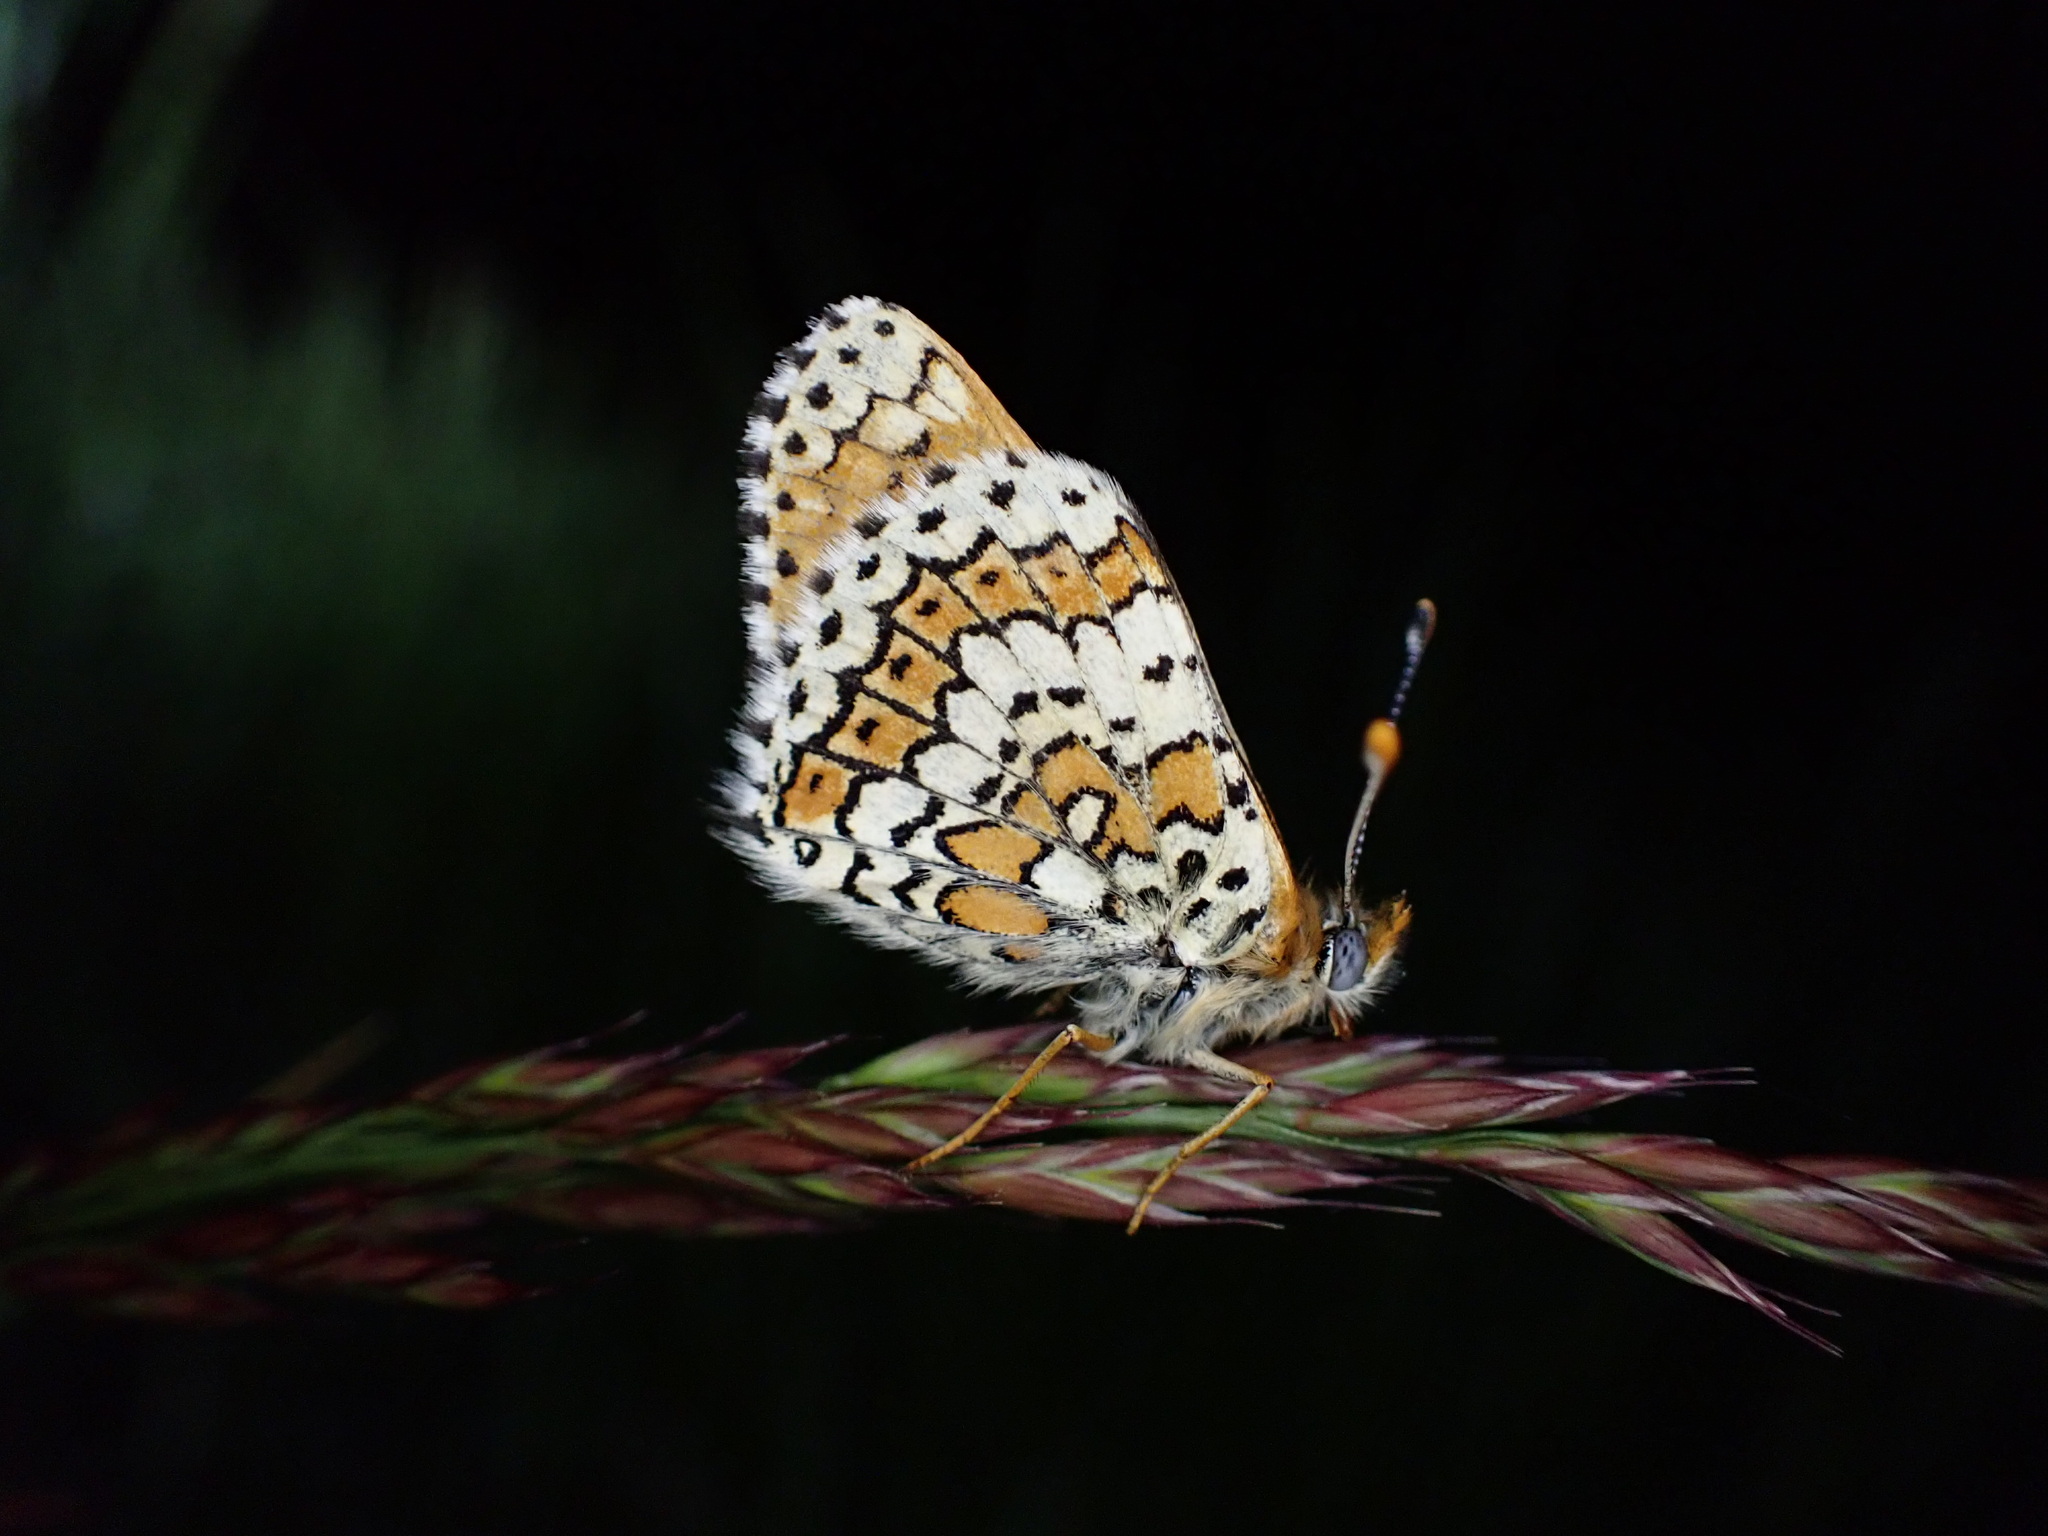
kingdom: Animalia
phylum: Arthropoda
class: Insecta
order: Lepidoptera
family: Nymphalidae
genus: Melitaea
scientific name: Melitaea cinxia
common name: Glanville fritillary
